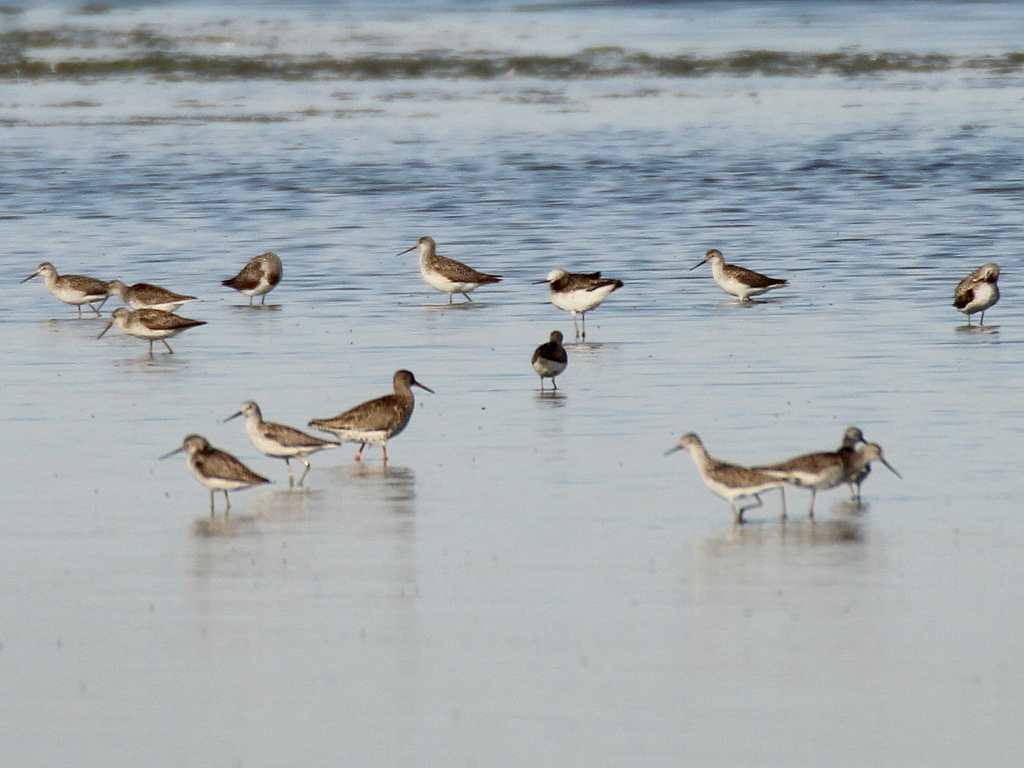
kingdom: Animalia
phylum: Chordata
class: Aves
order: Charadriiformes
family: Scolopacidae
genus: Tringa
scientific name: Tringa stagnatilis
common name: Marsh sandpiper
